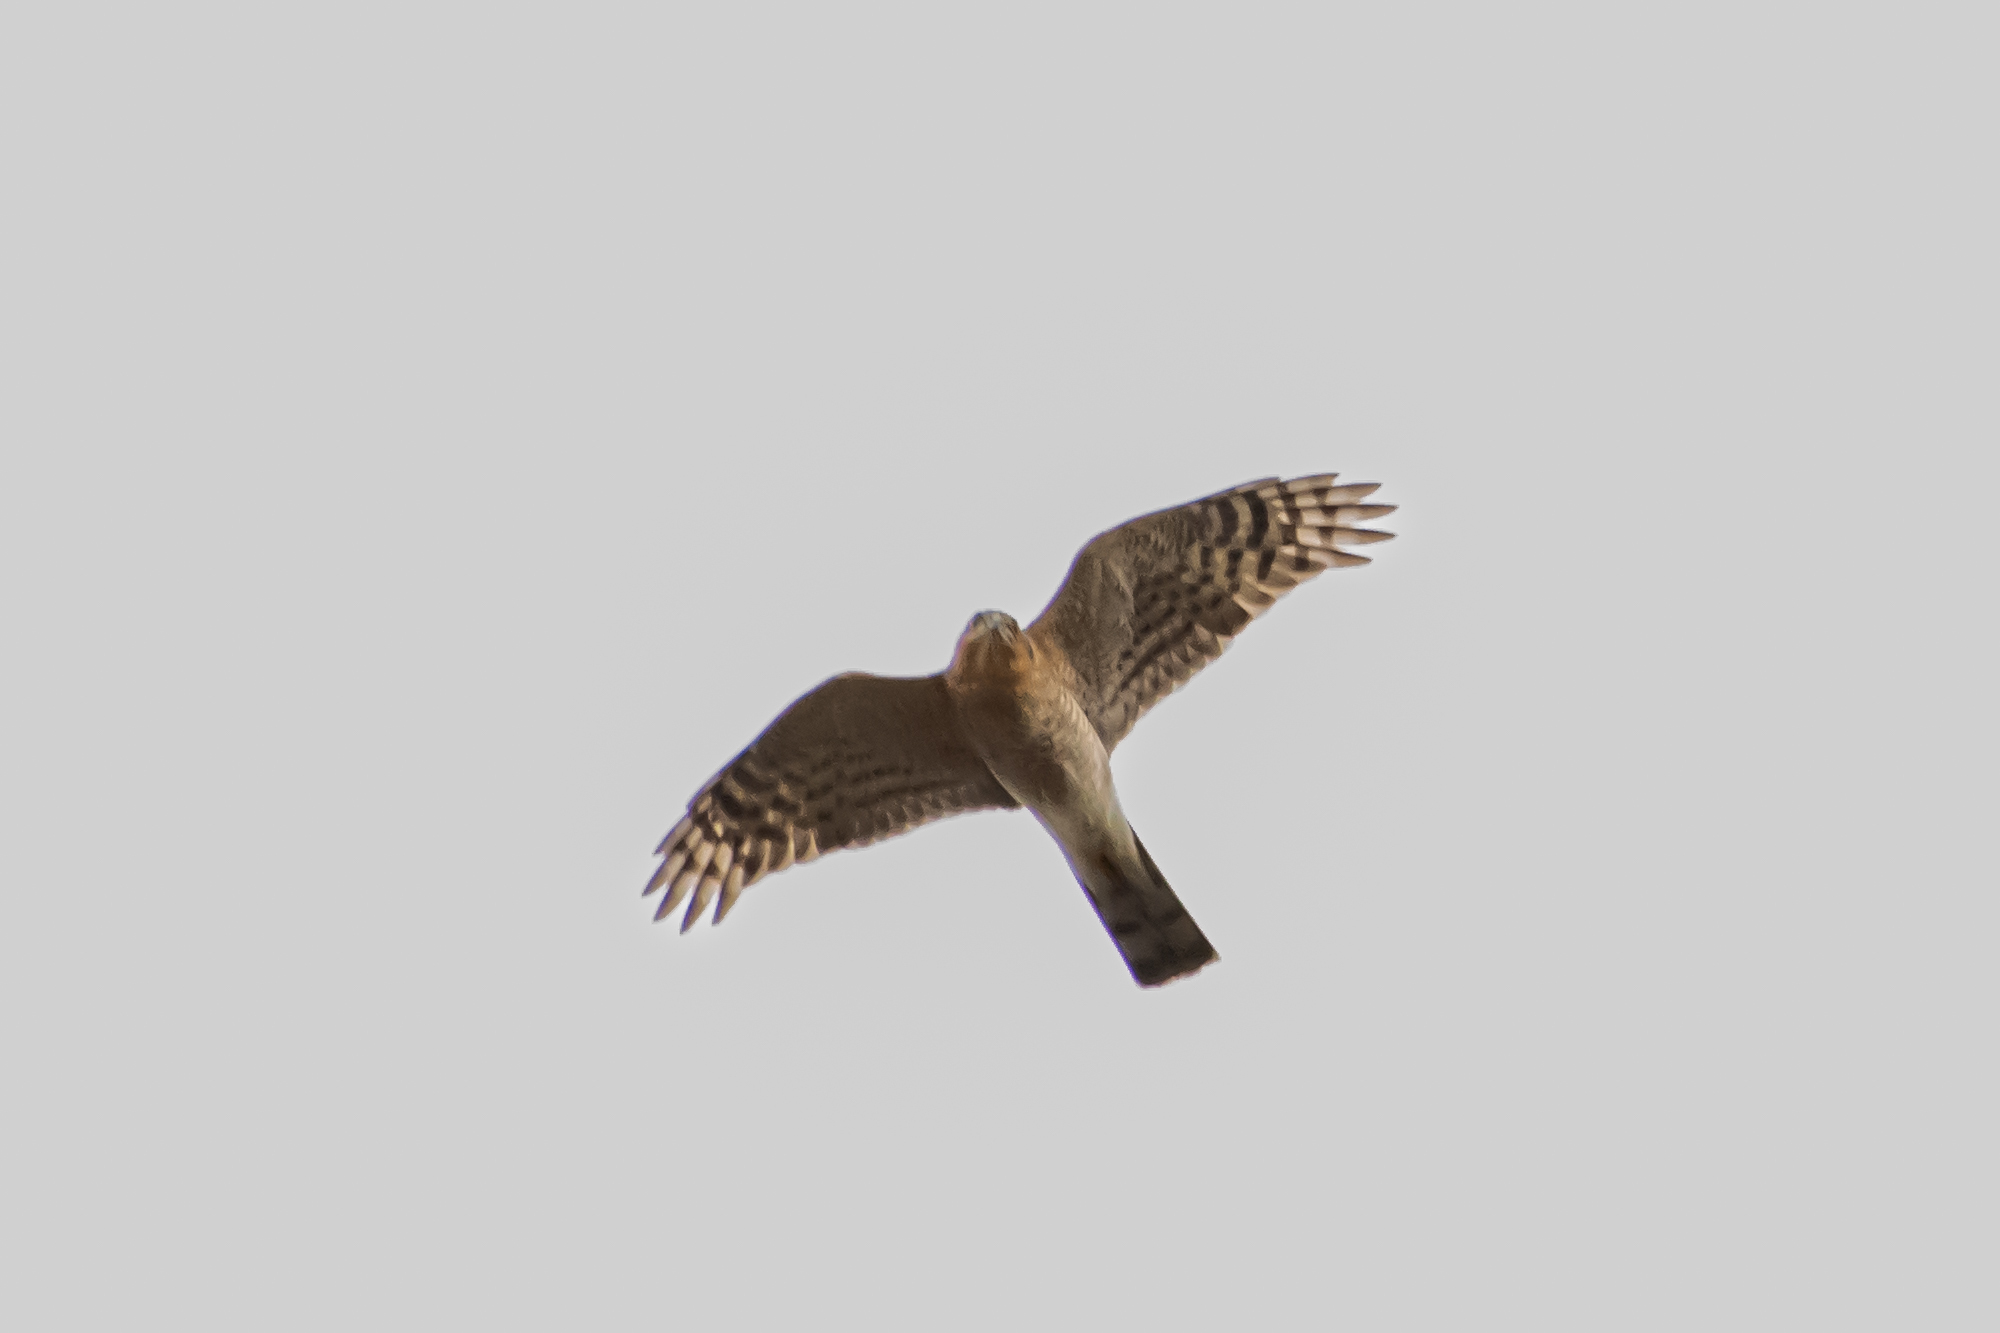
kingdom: Animalia
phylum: Chordata
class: Aves
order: Accipitriformes
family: Accipitridae
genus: Accipiter
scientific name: Accipiter nisus
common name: Eurasian sparrowhawk
